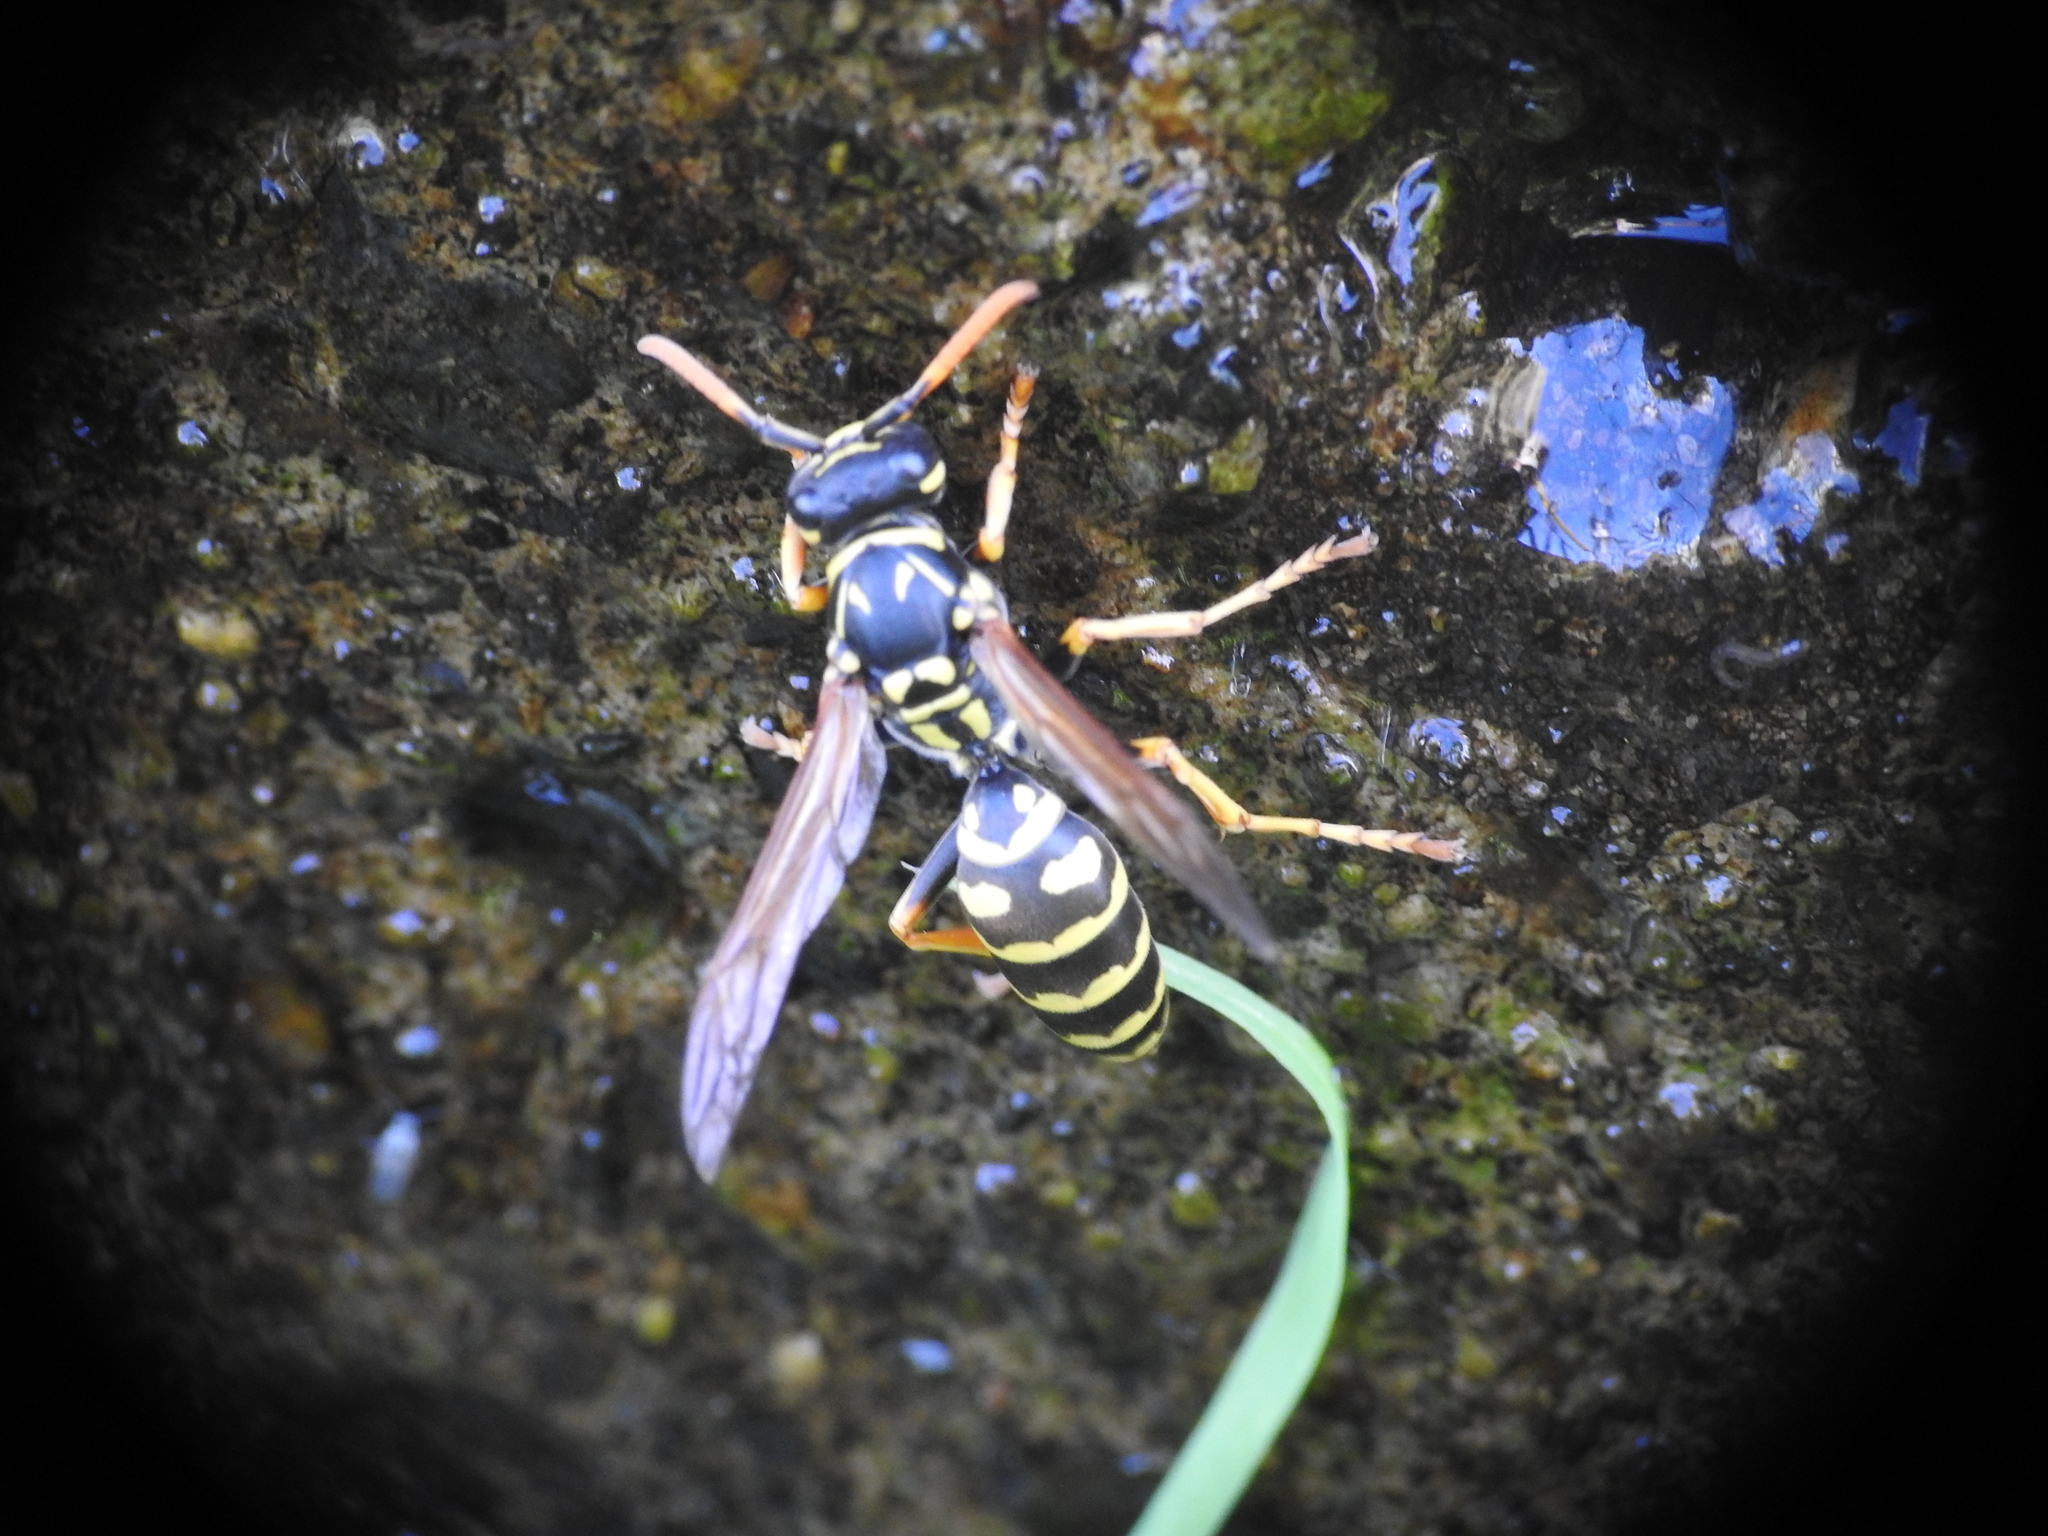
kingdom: Animalia
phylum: Arthropoda
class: Insecta
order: Hymenoptera
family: Eumenidae
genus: Polistes
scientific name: Polistes dominula
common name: Paper wasp
